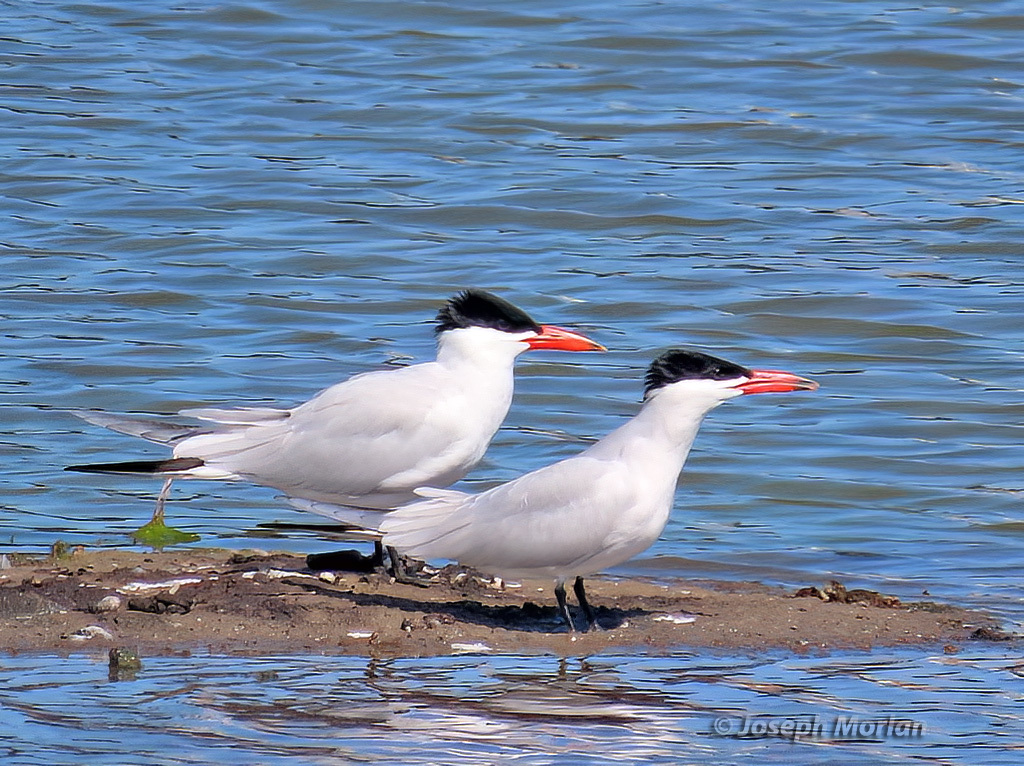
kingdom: Animalia
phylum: Chordata
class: Aves
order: Charadriiformes
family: Laridae
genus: Hydroprogne
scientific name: Hydroprogne caspia
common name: Caspian tern
